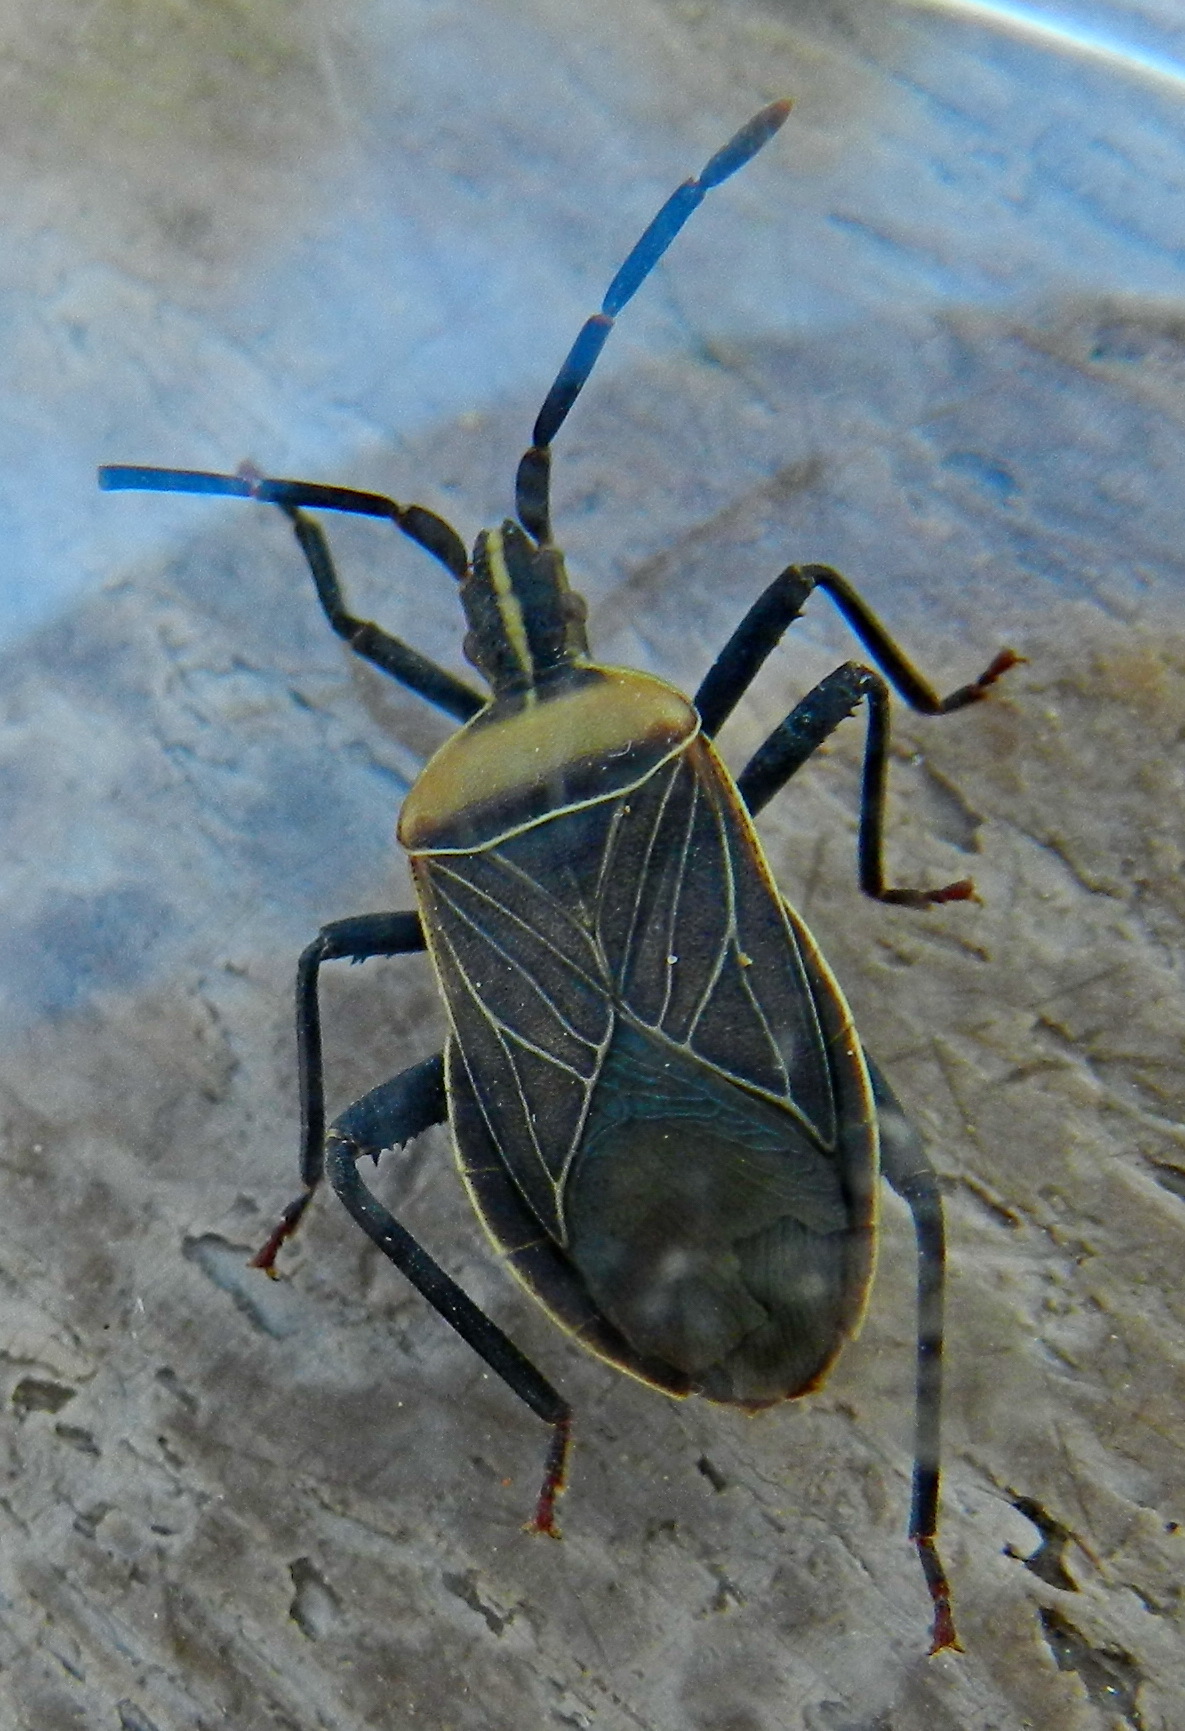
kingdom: Animalia
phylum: Arthropoda
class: Insecta
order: Hemiptera
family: Coreidae
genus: Chelinidea
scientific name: Chelinidea vittiger
